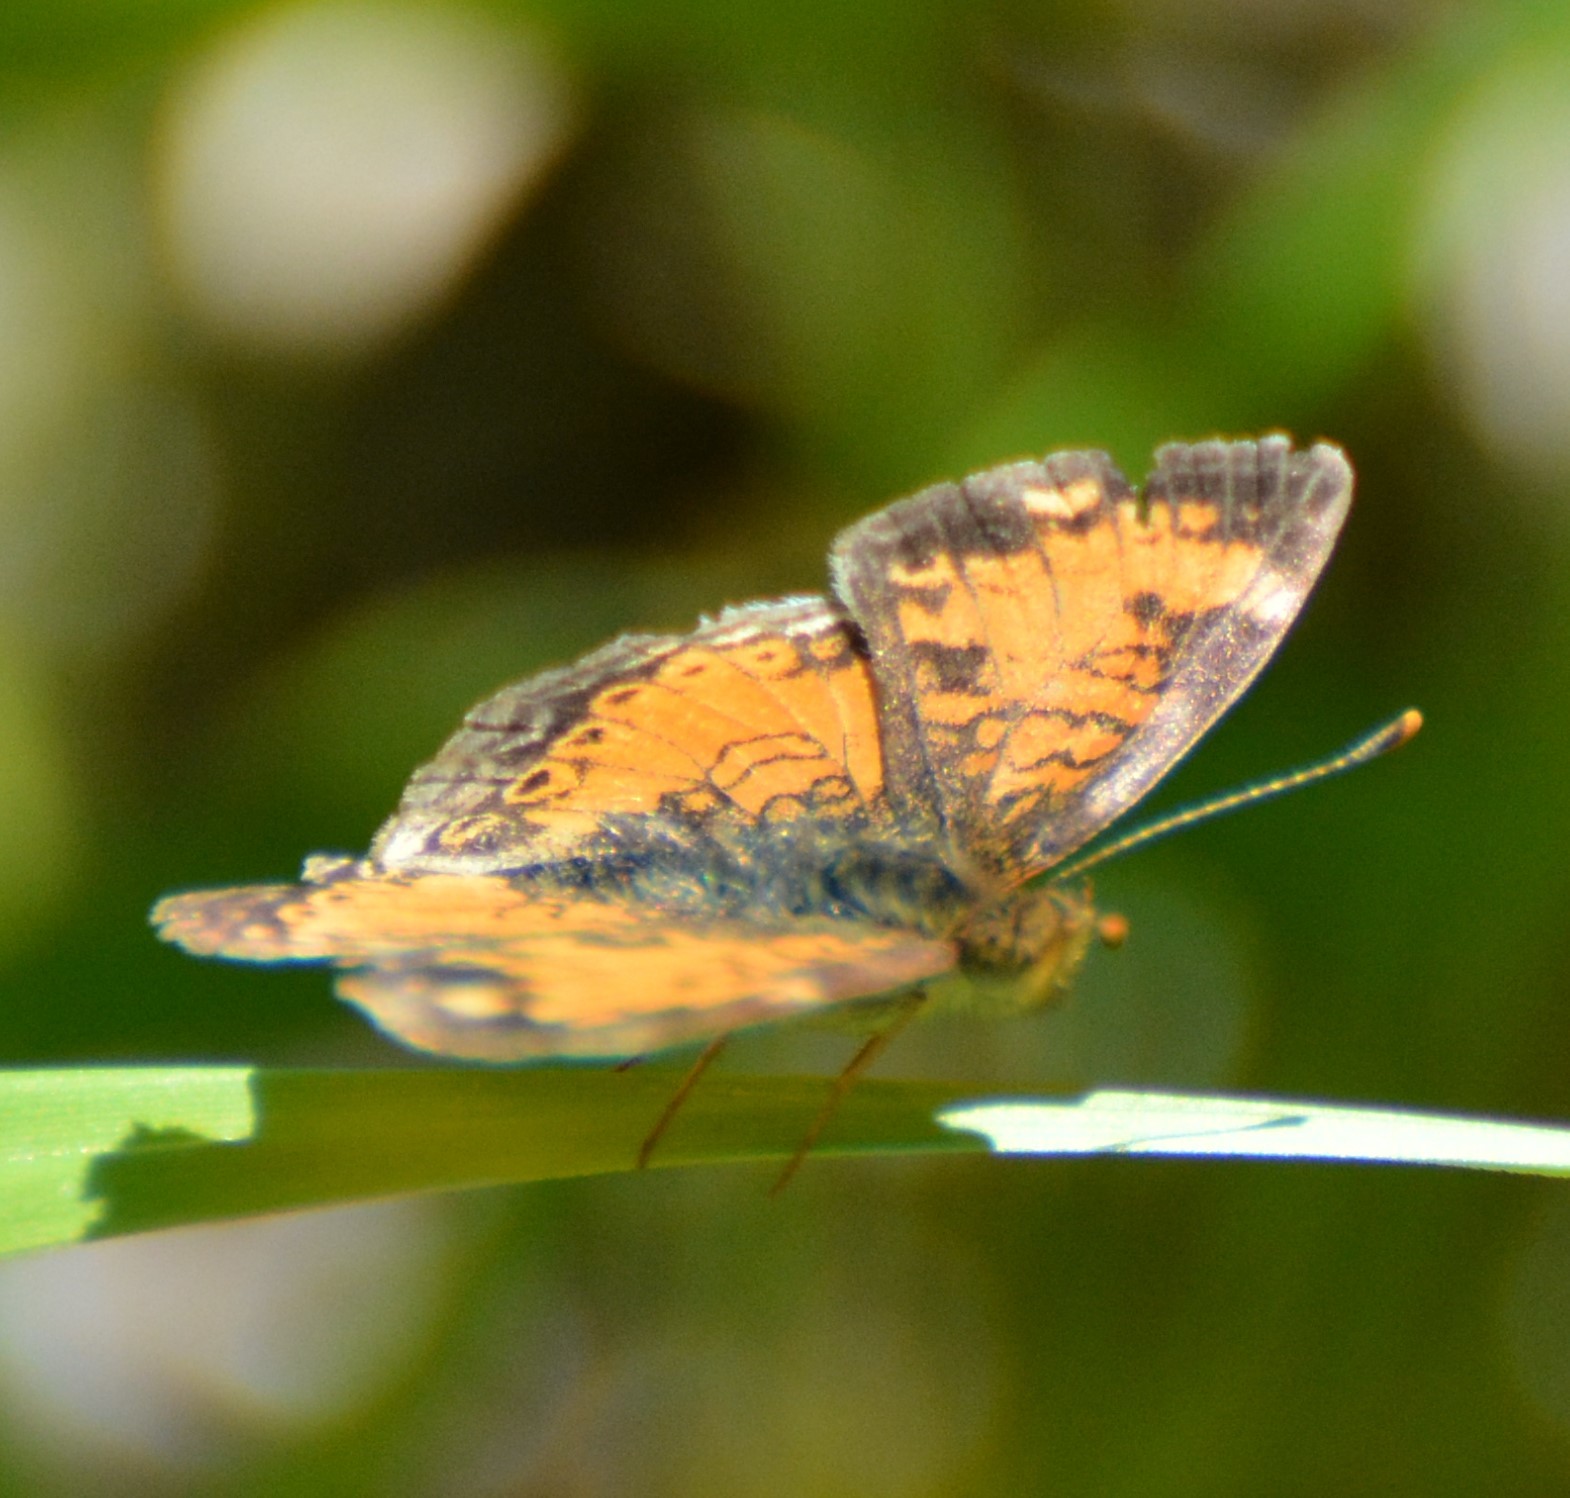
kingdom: Animalia
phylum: Arthropoda
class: Insecta
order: Lepidoptera
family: Nymphalidae
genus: Phyciodes
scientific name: Phyciodes tharos
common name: Pearl crescent
